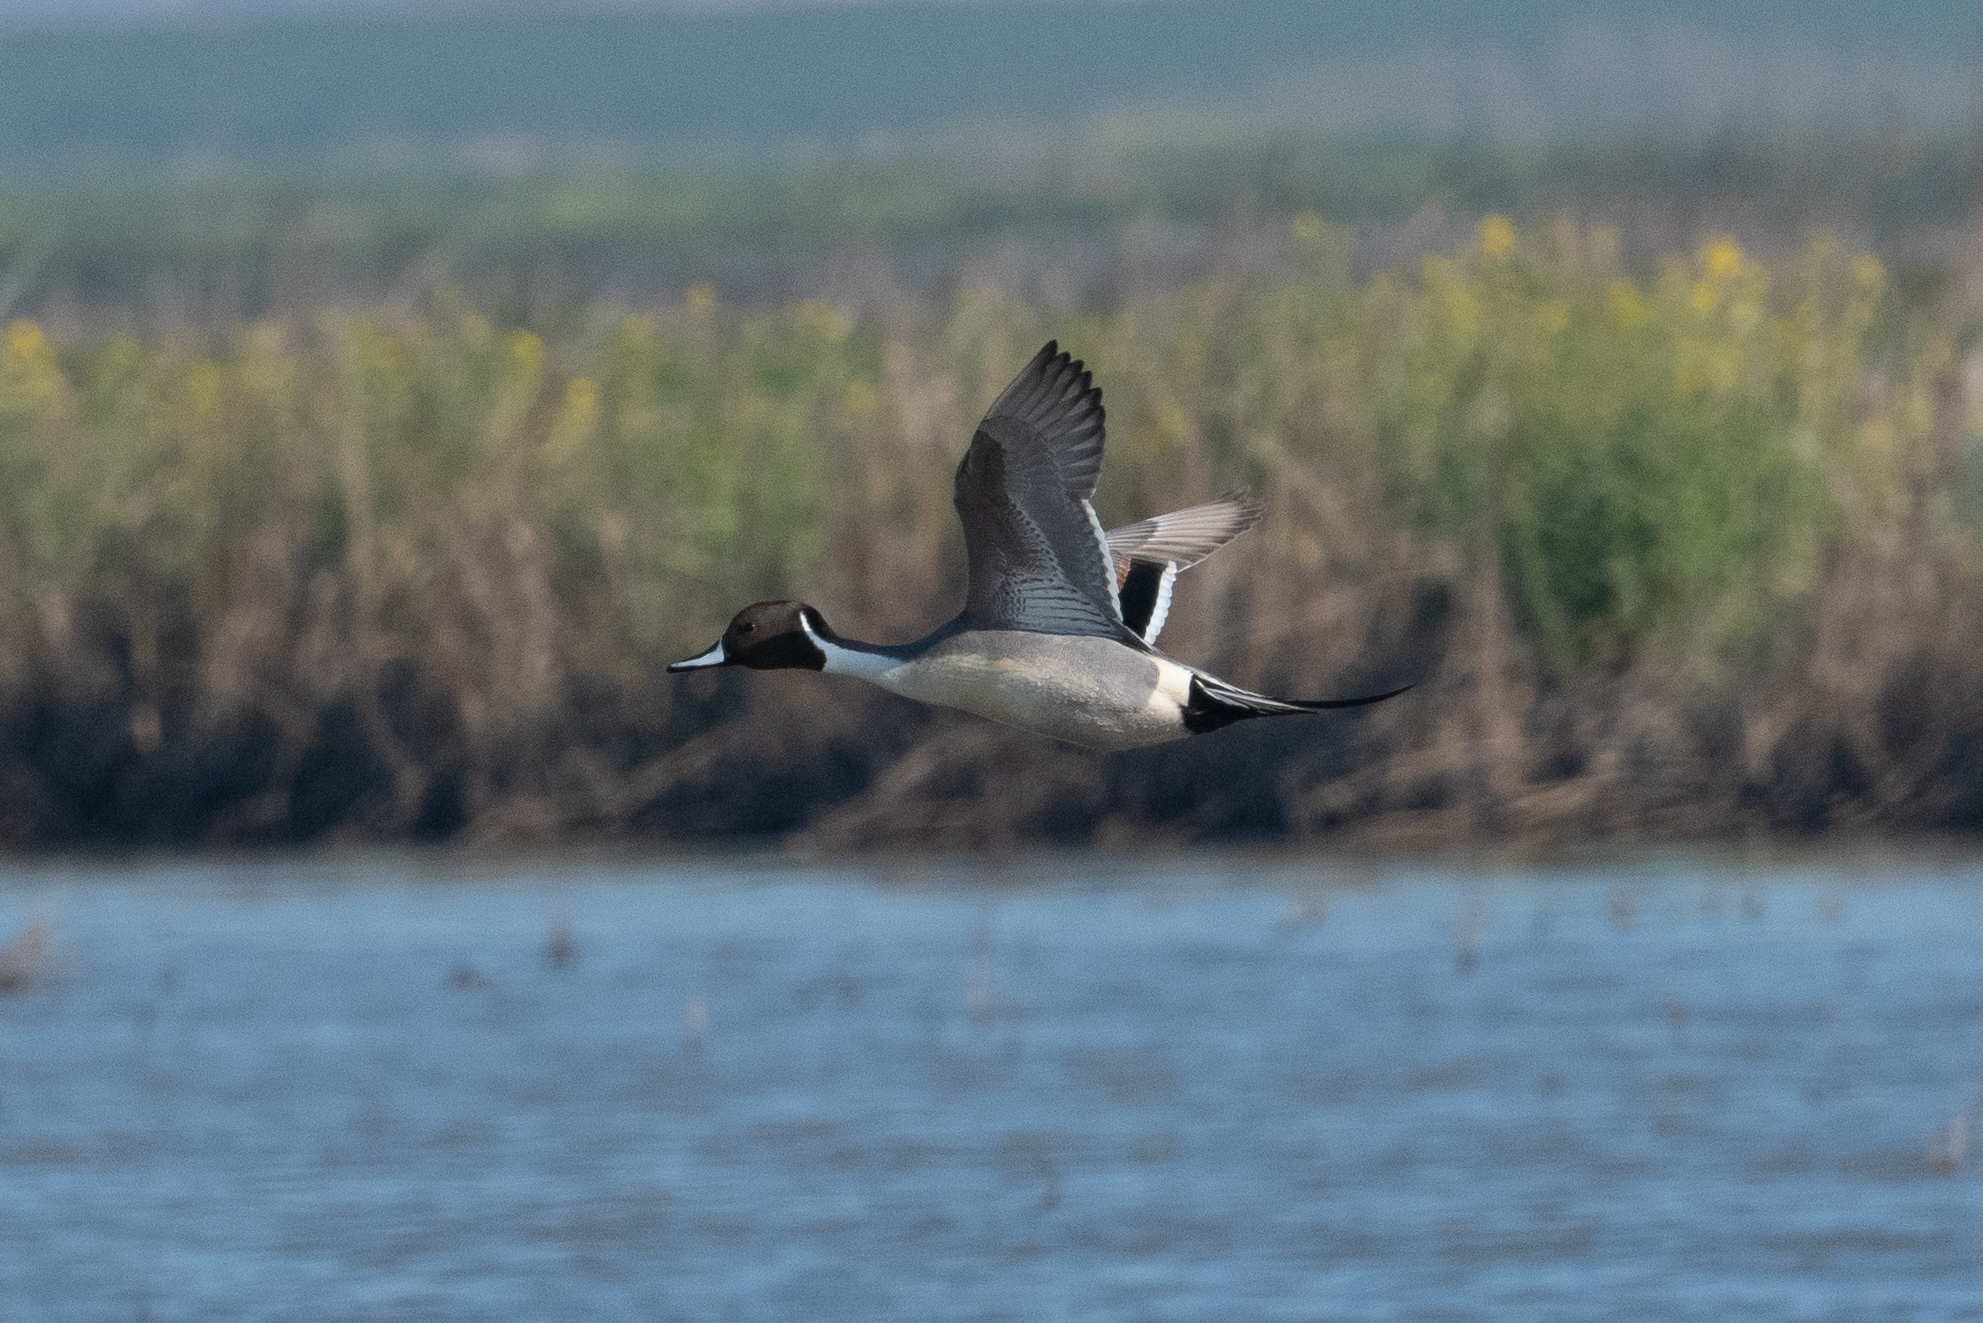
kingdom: Animalia
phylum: Chordata
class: Aves
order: Anseriformes
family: Anatidae
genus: Anas
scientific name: Anas acuta
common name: Northern pintail
